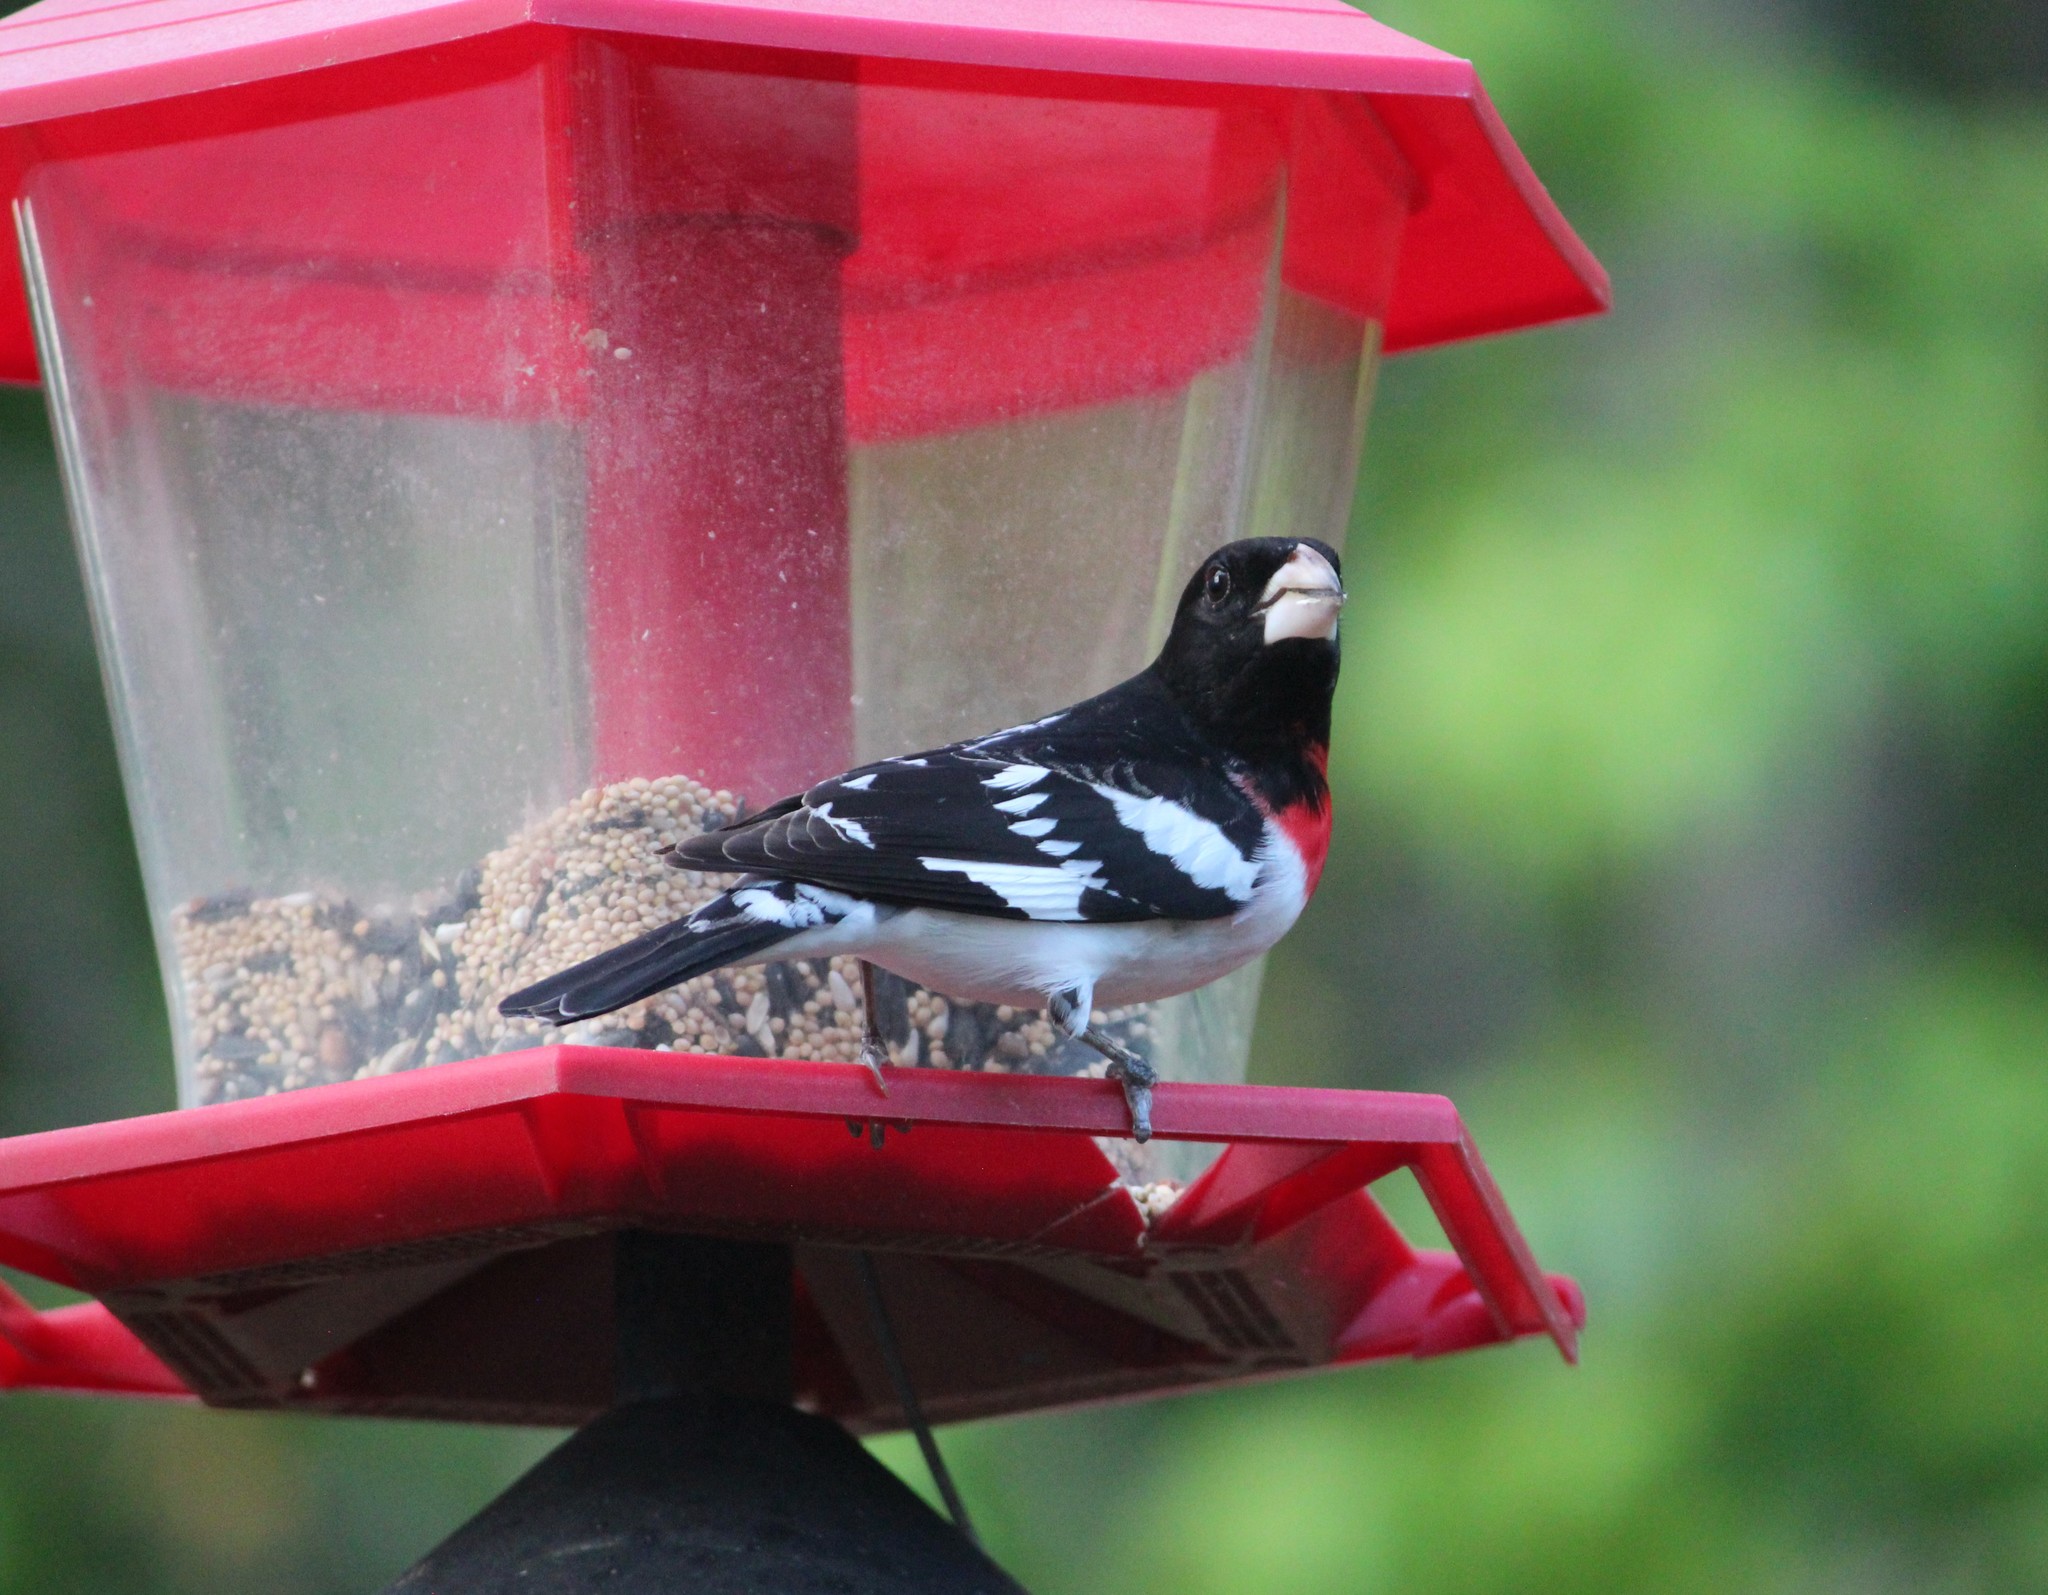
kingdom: Animalia
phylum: Chordata
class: Aves
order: Passeriformes
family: Cardinalidae
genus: Pheucticus
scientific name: Pheucticus ludovicianus
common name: Rose-breasted grosbeak
